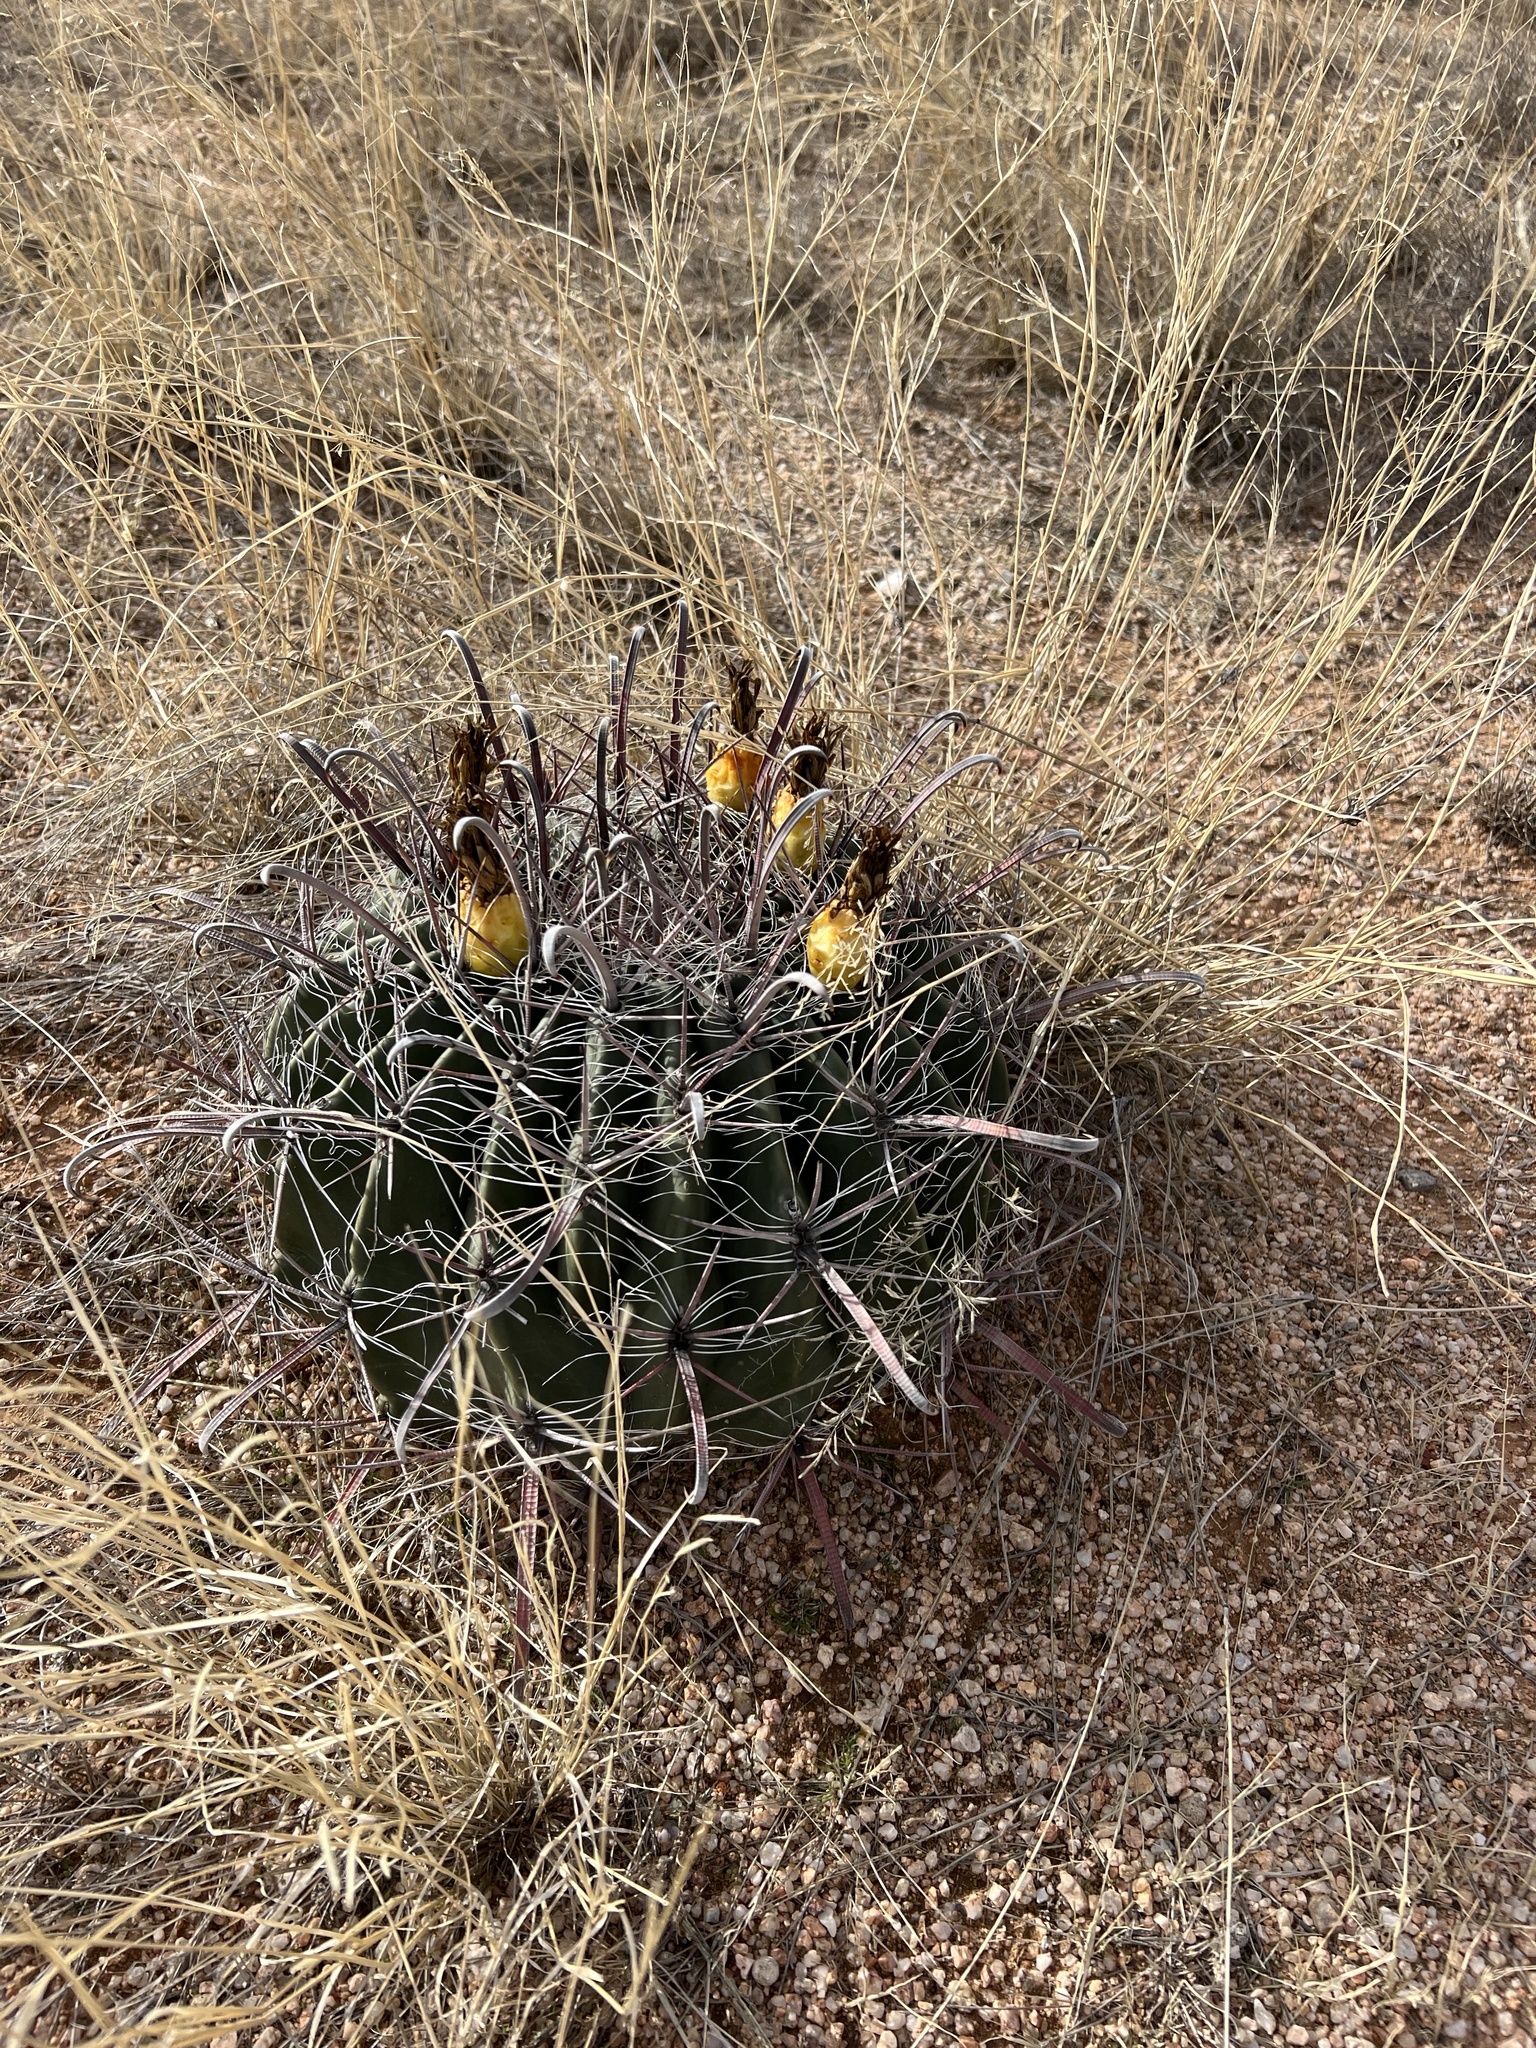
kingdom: Plantae
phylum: Tracheophyta
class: Magnoliopsida
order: Caryophyllales
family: Cactaceae
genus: Ferocactus
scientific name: Ferocactus wislizeni
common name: Candy barrel cactus
